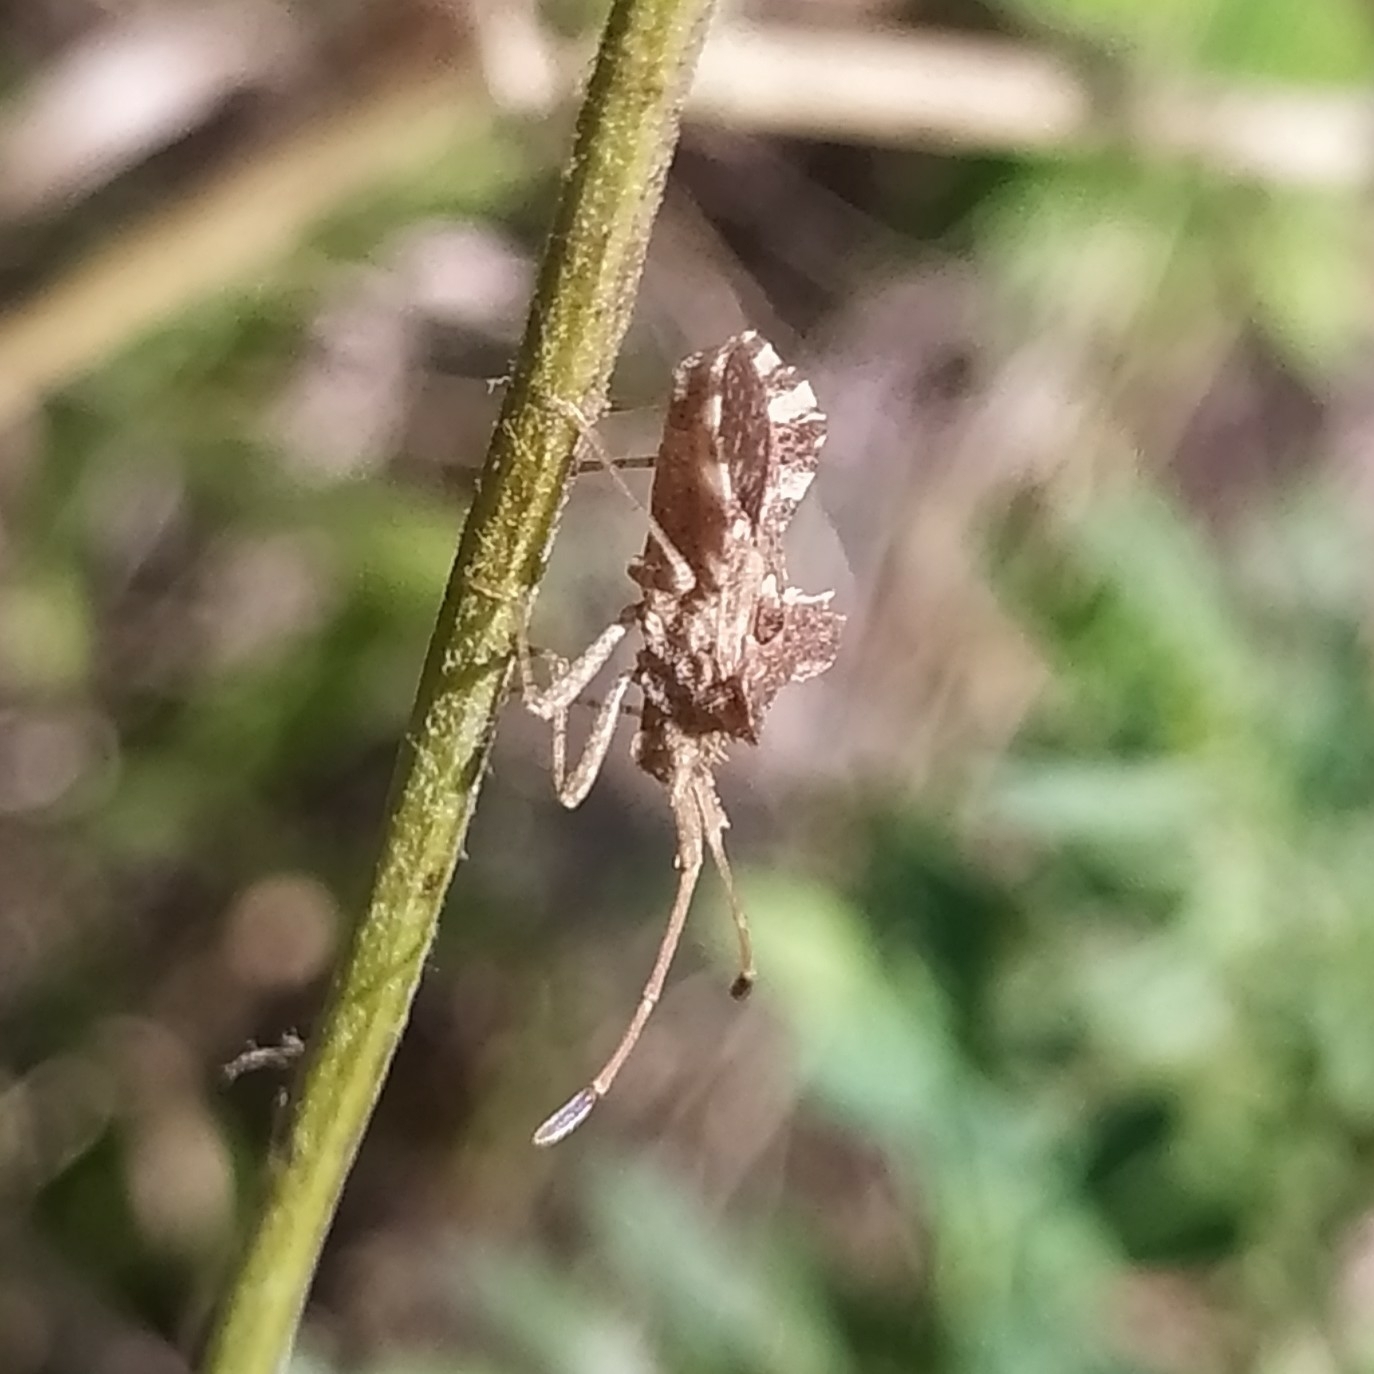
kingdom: Animalia
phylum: Arthropoda
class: Insecta
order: Hemiptera
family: Coreidae
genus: Centrocoris
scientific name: Centrocoris spiniger
